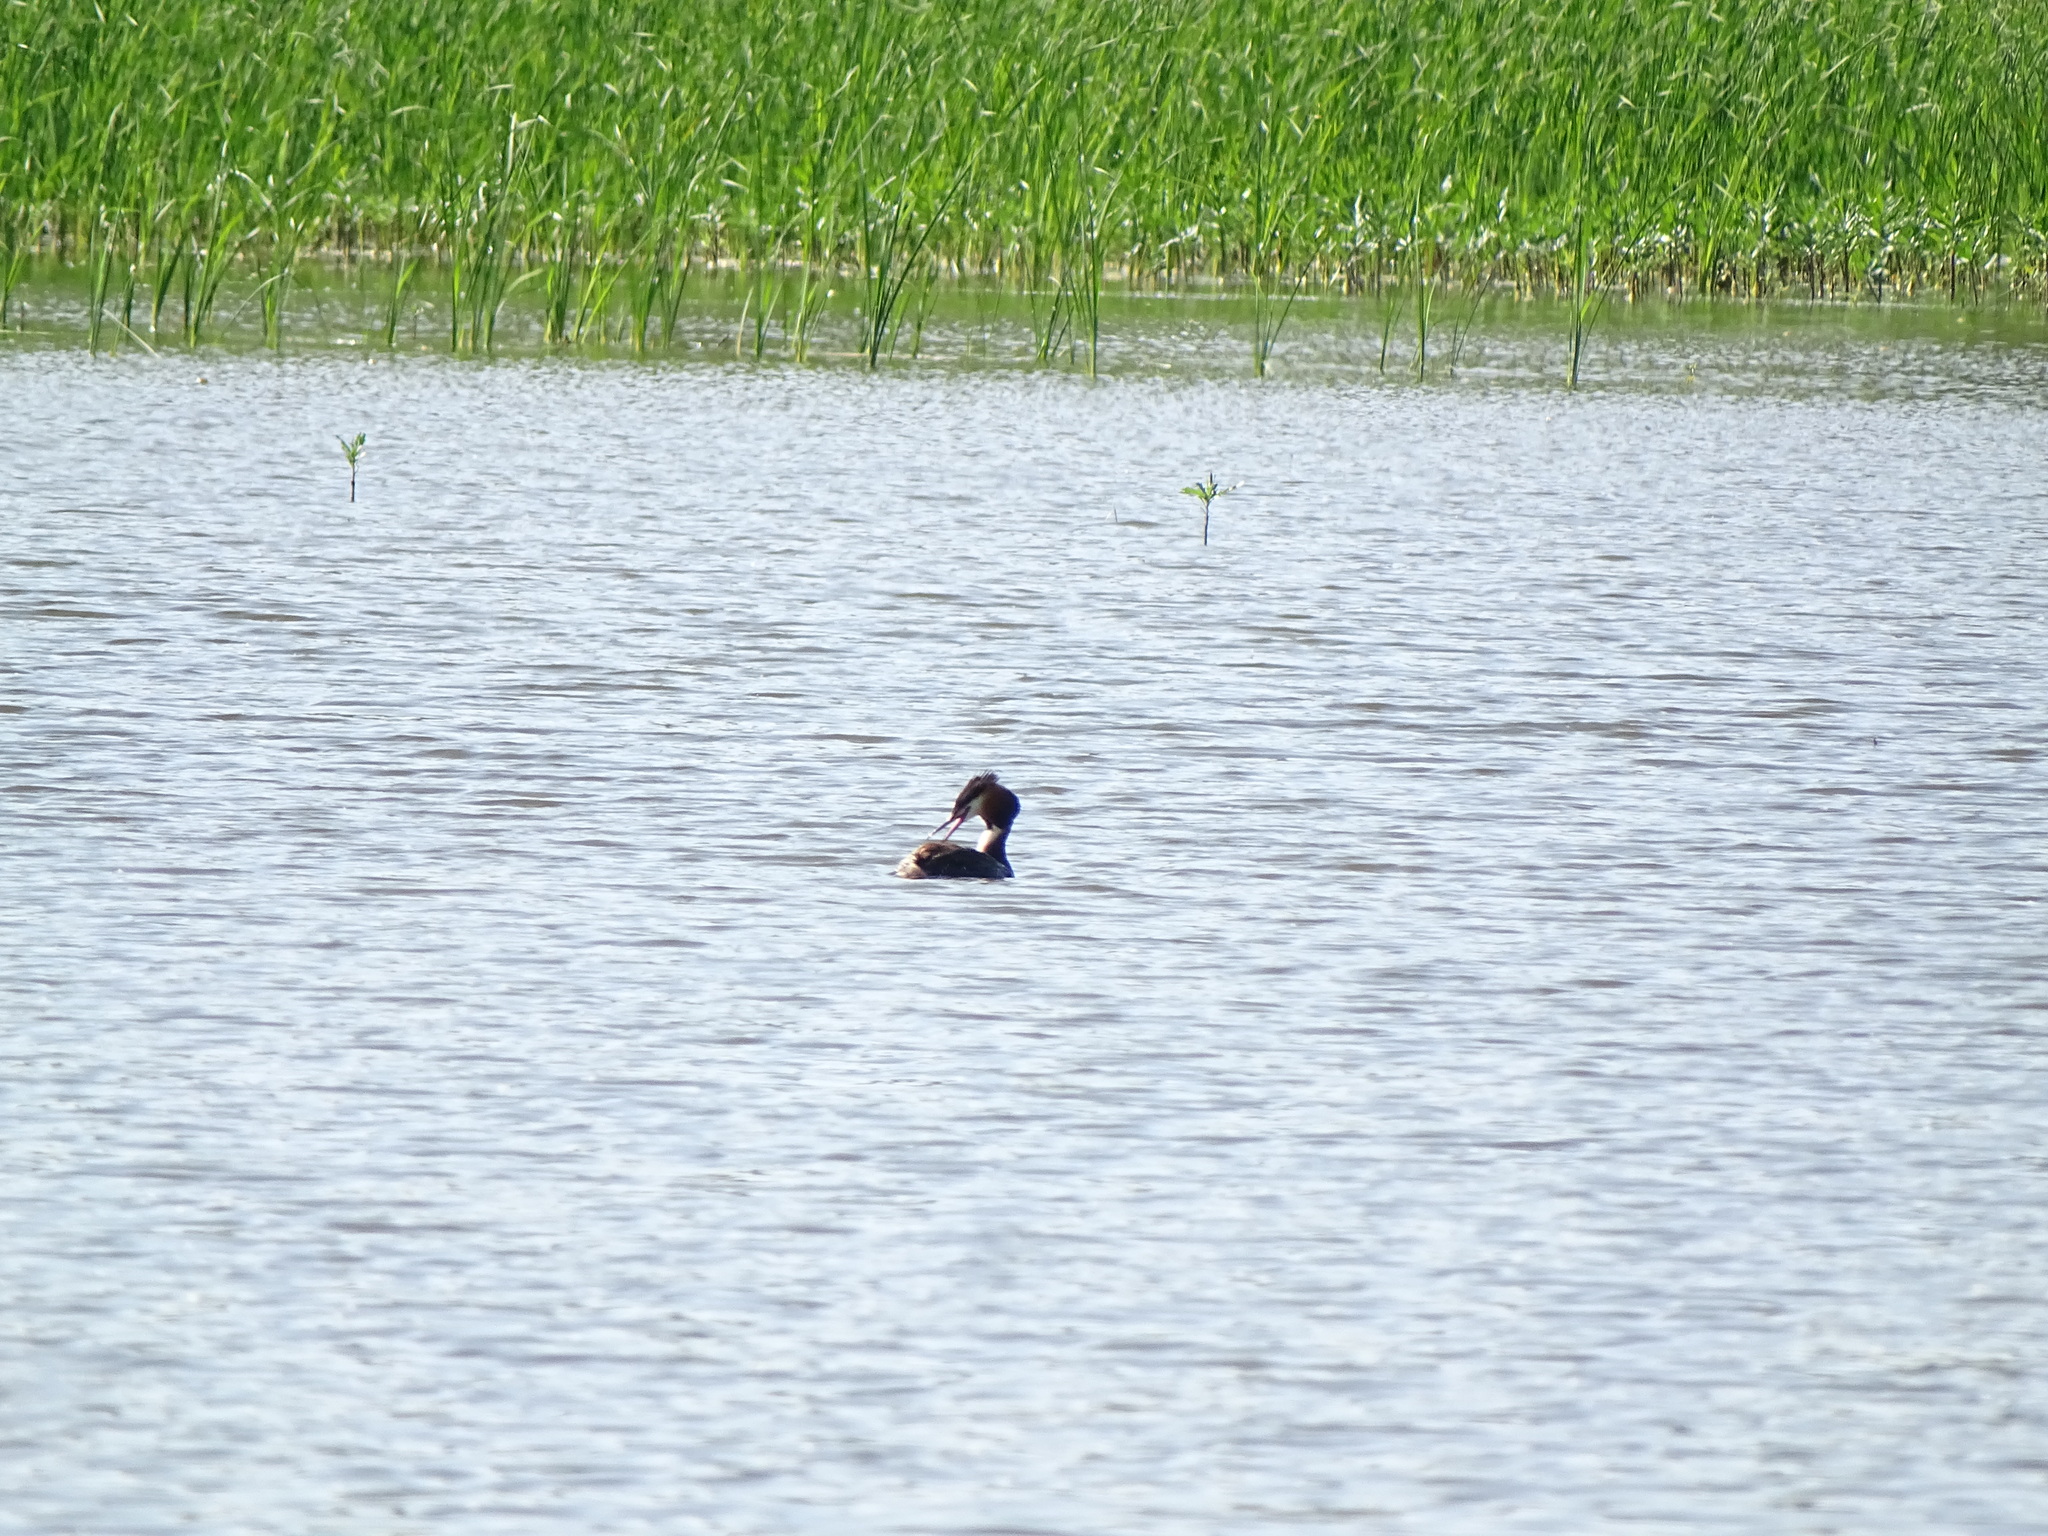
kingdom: Animalia
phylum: Chordata
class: Aves
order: Podicipediformes
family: Podicipedidae
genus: Podiceps
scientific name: Podiceps cristatus
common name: Great crested grebe
